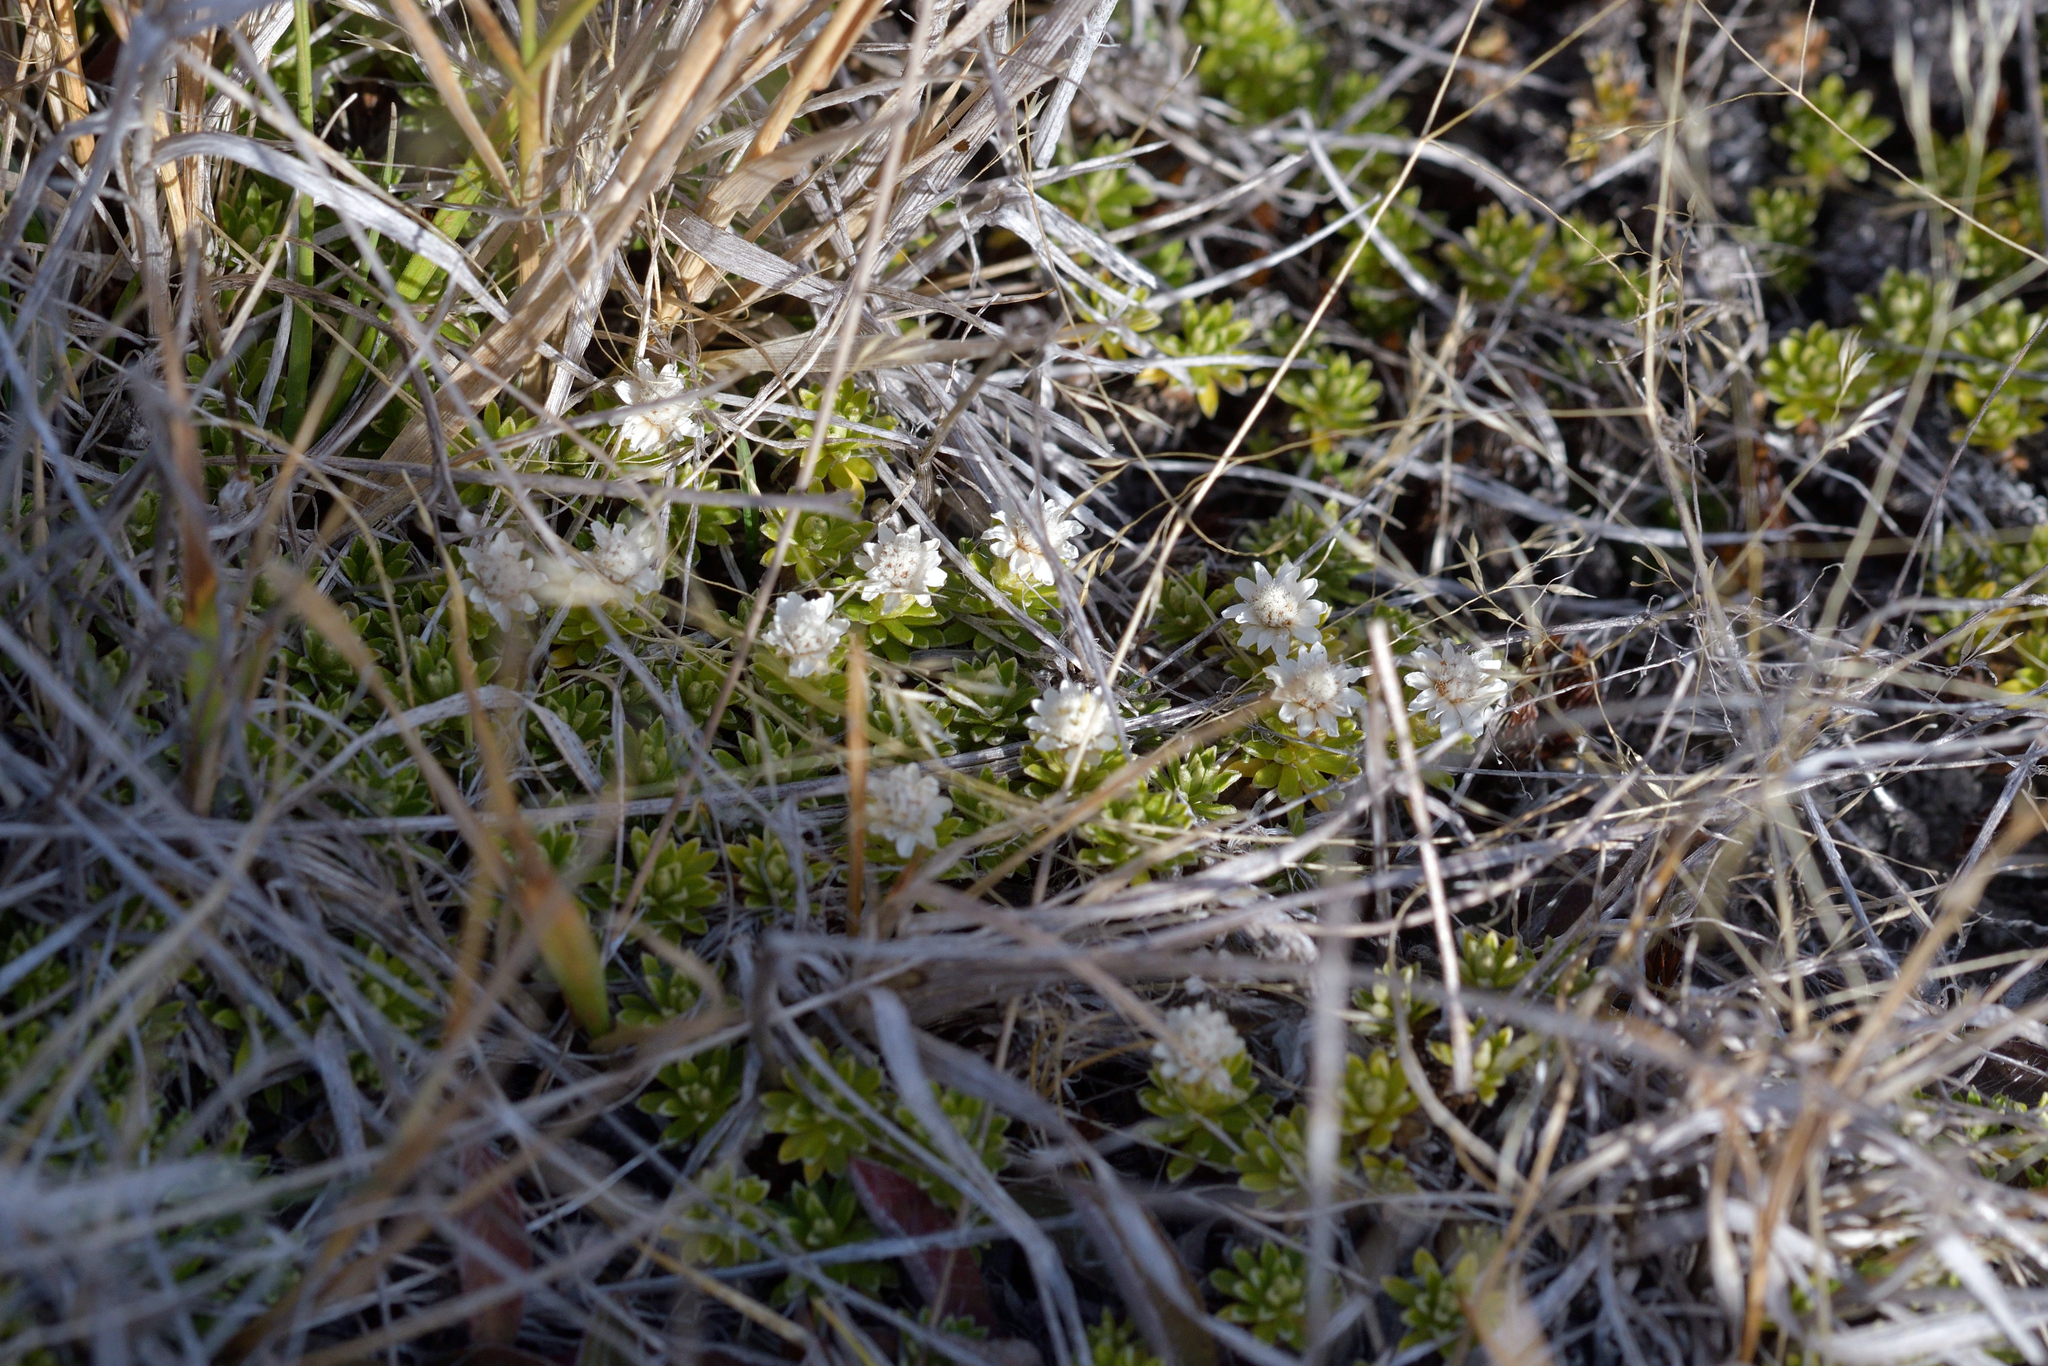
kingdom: Plantae
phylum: Tracheophyta
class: Magnoliopsida
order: Asterales
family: Asteraceae
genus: Raoulia
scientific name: Raoulia glabra
